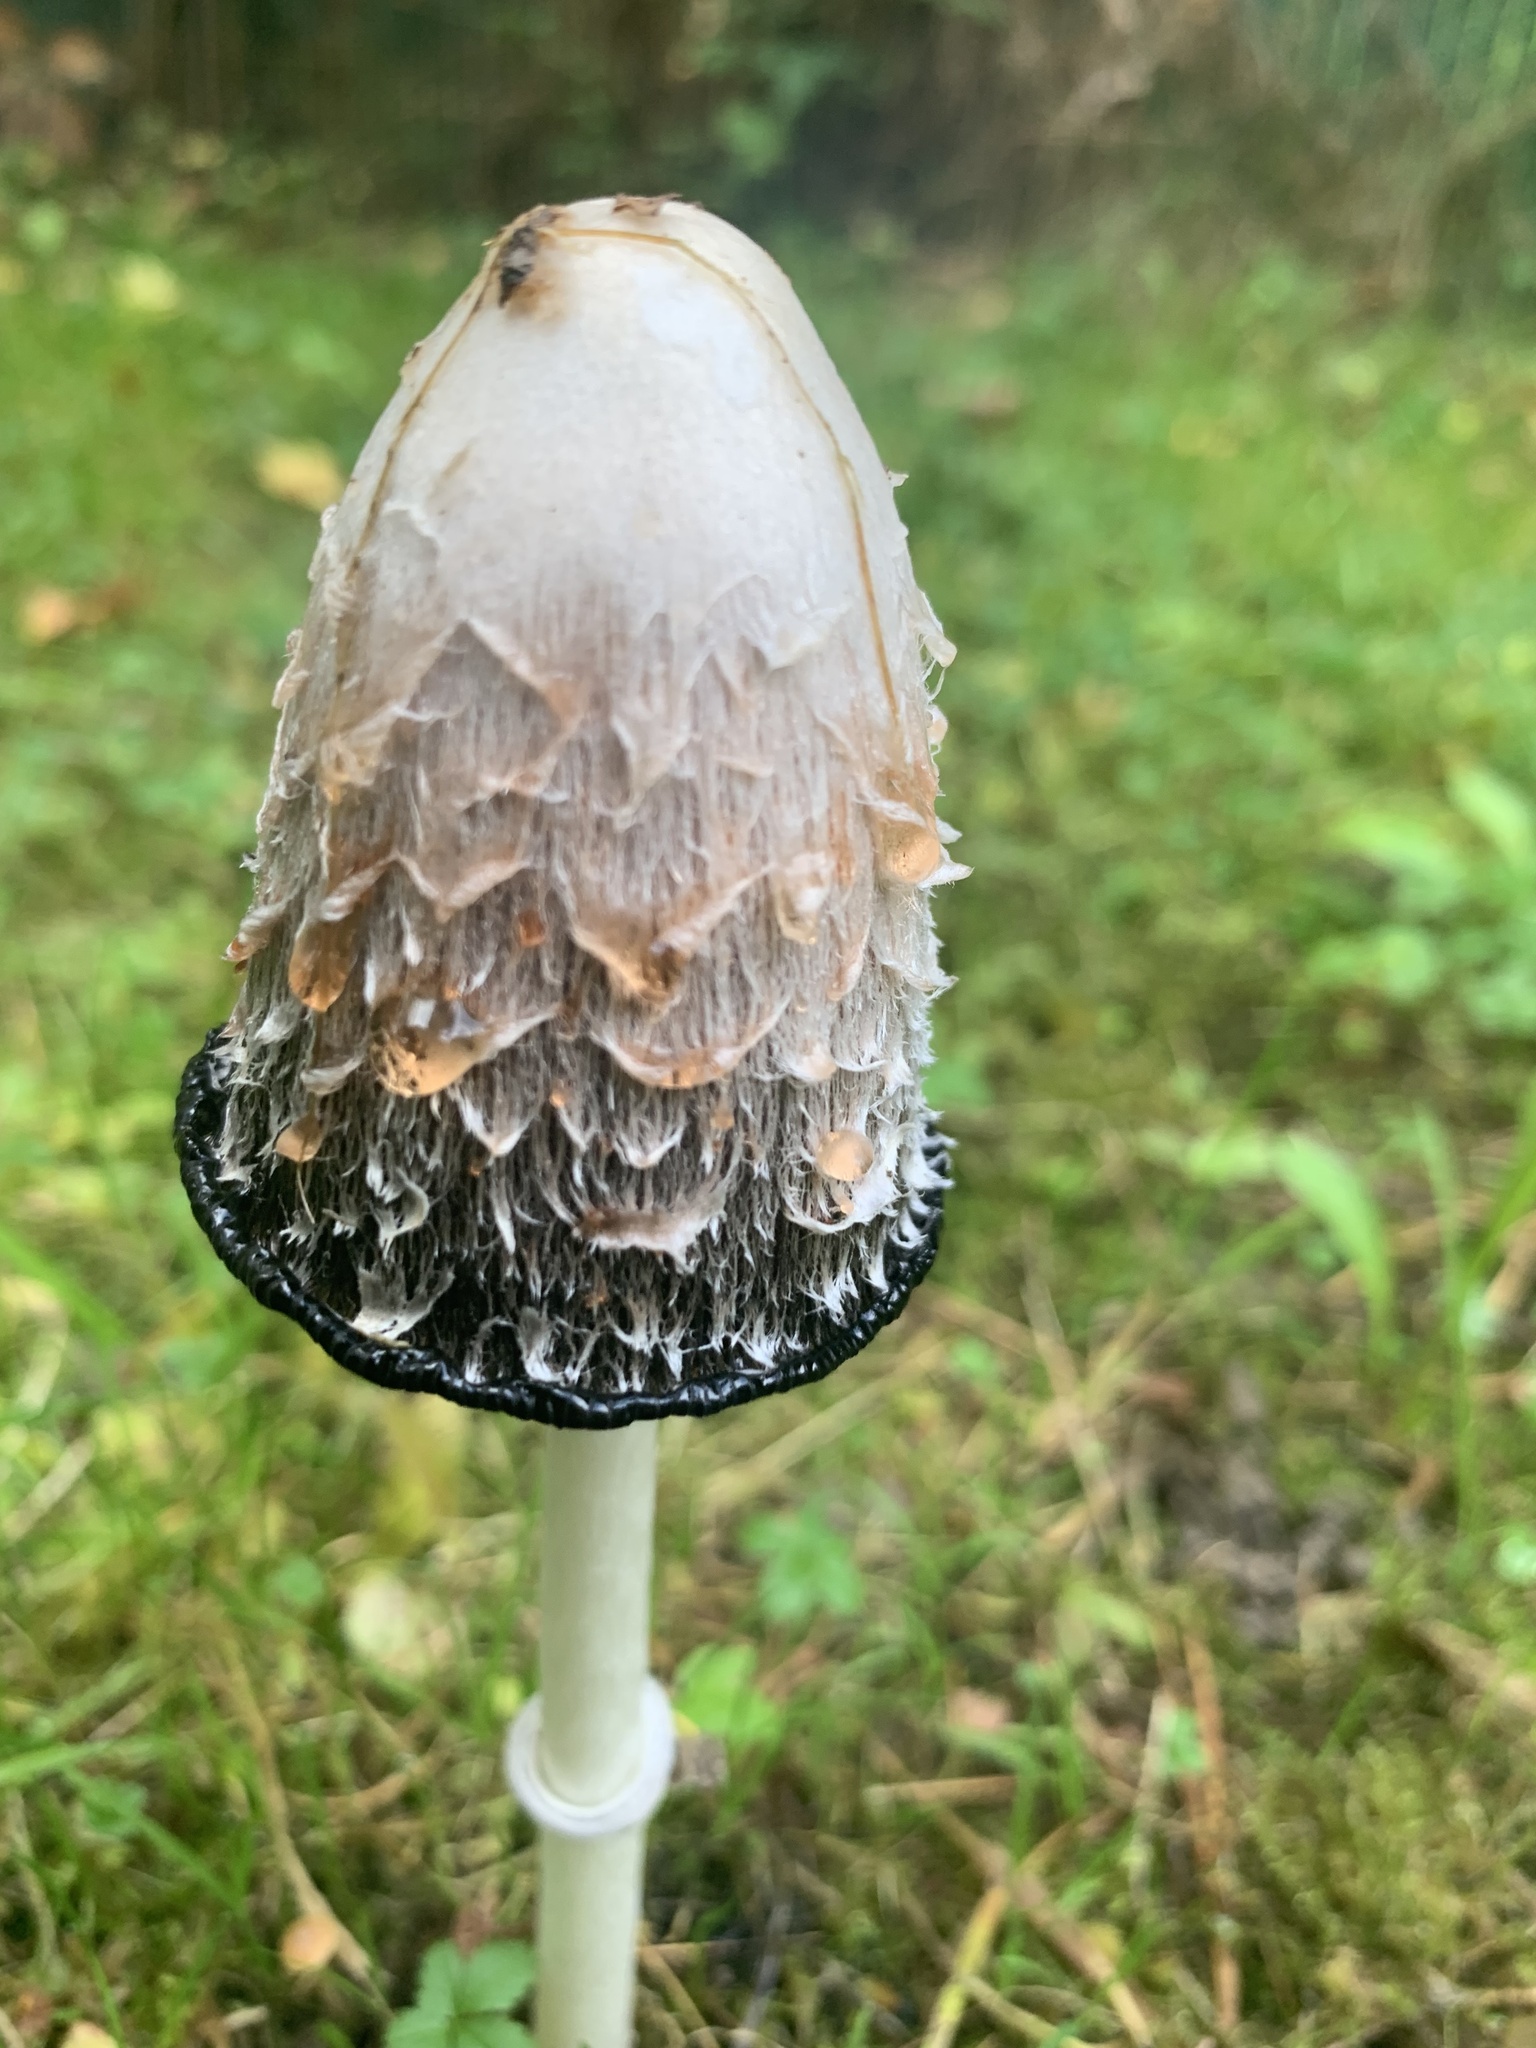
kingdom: Fungi
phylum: Basidiomycota
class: Agaricomycetes
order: Agaricales
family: Agaricaceae
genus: Coprinus
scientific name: Coprinus comatus
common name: Lawyer's wig
